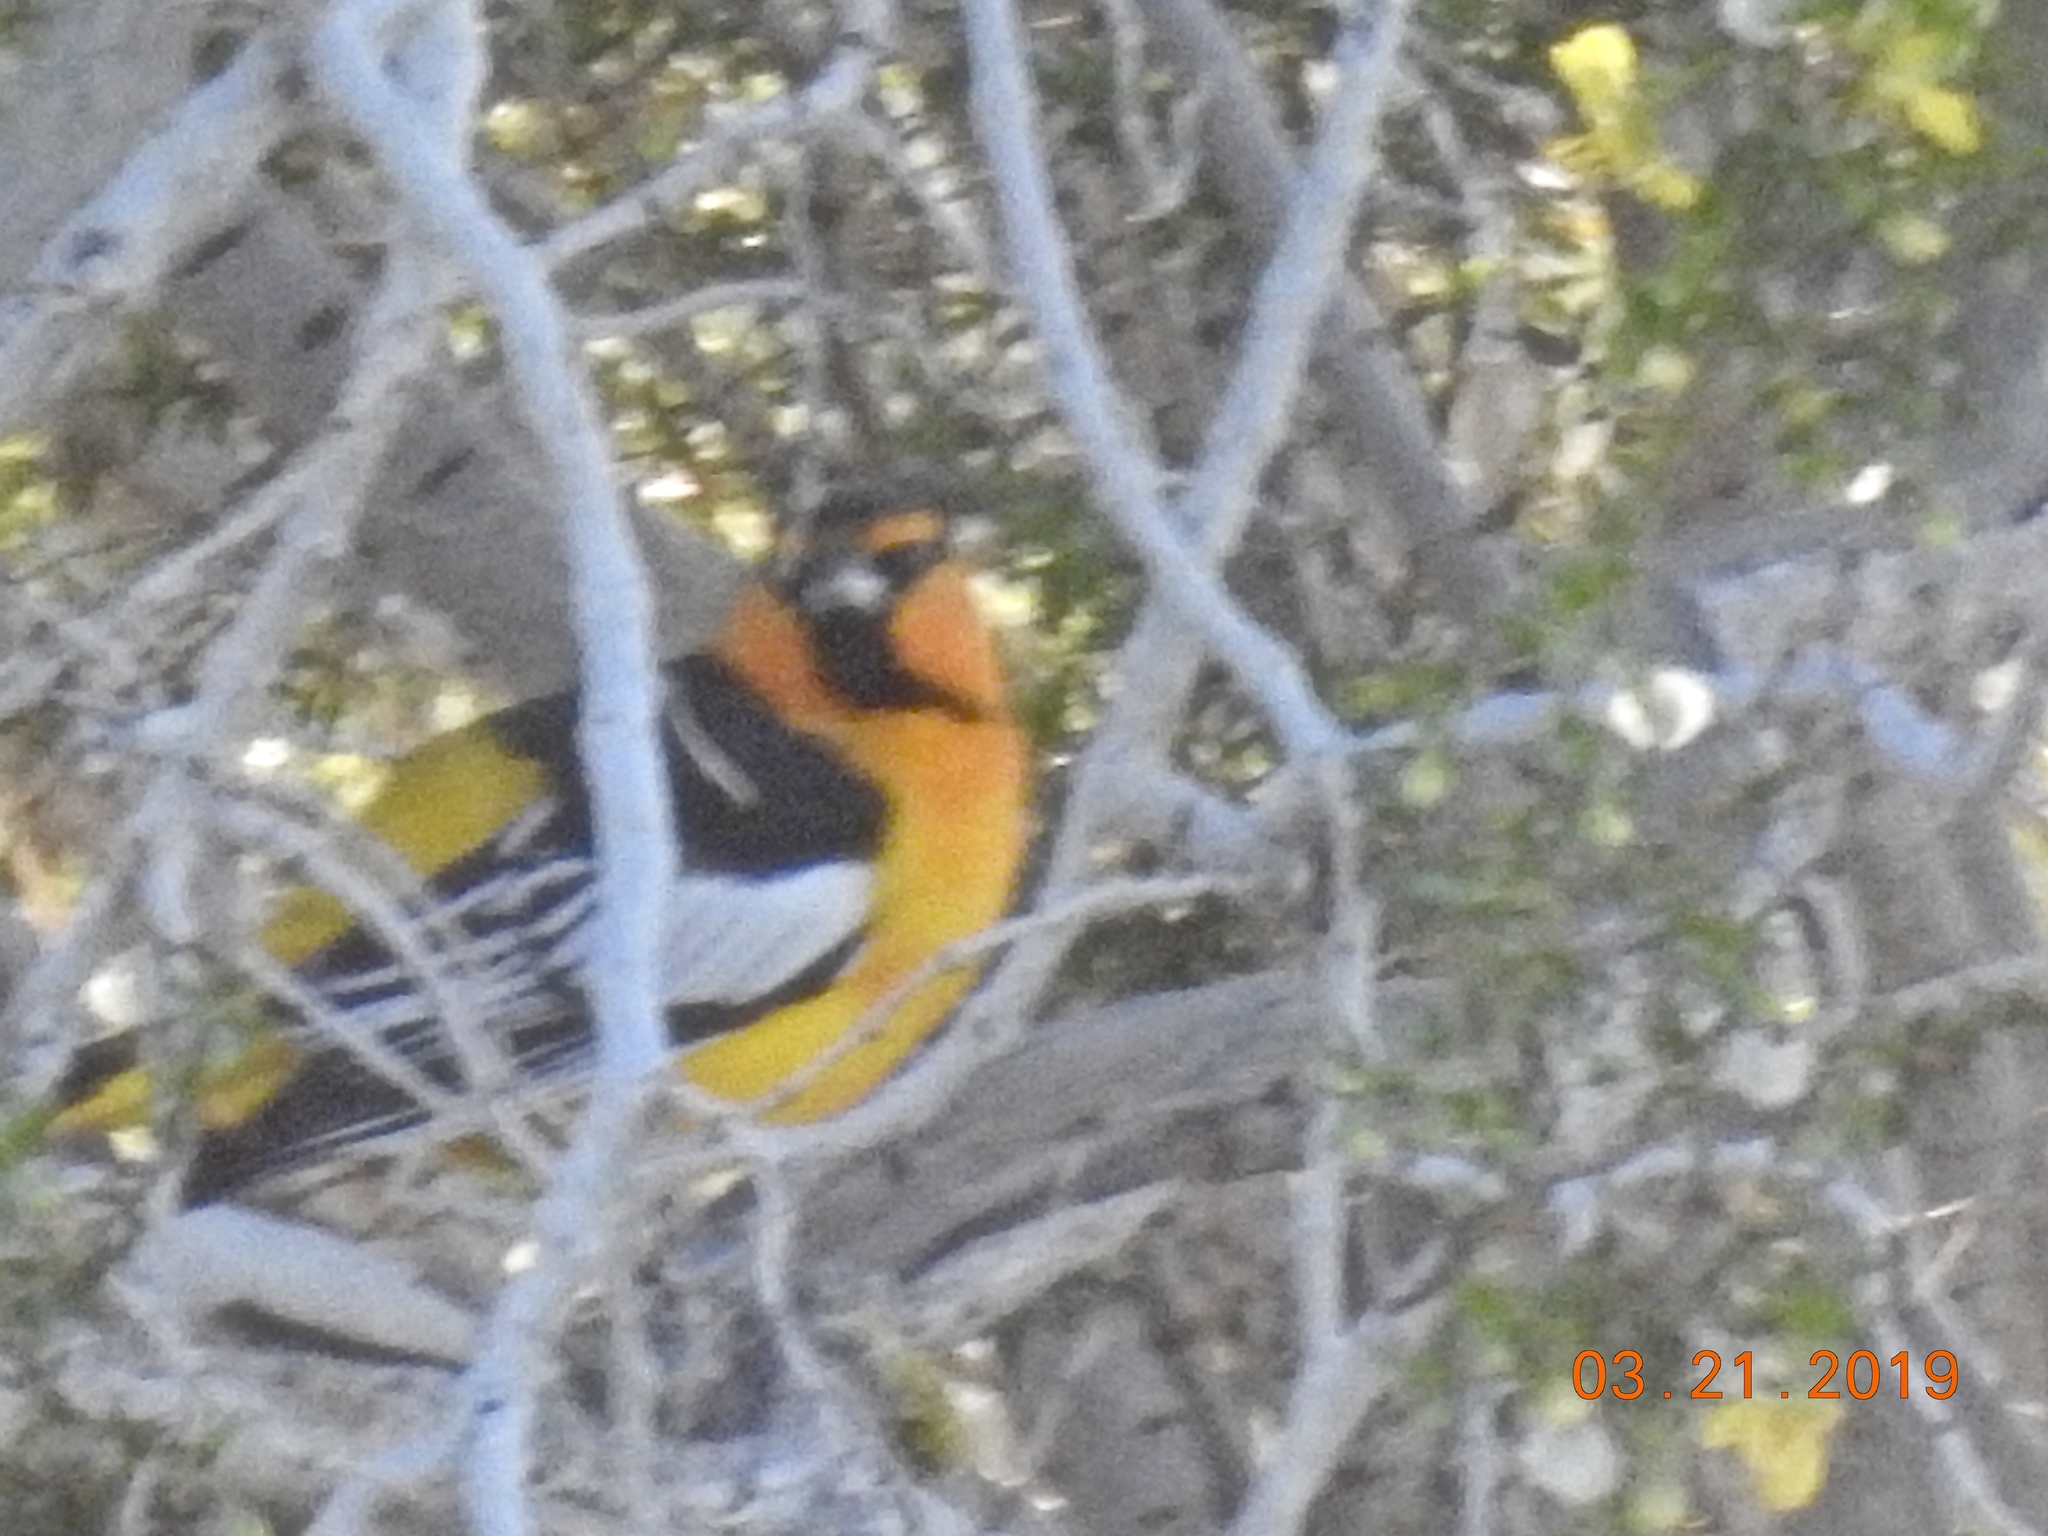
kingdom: Animalia
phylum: Chordata
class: Aves
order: Passeriformes
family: Icteridae
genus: Icterus
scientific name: Icterus bullockii
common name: Bullock's oriole
